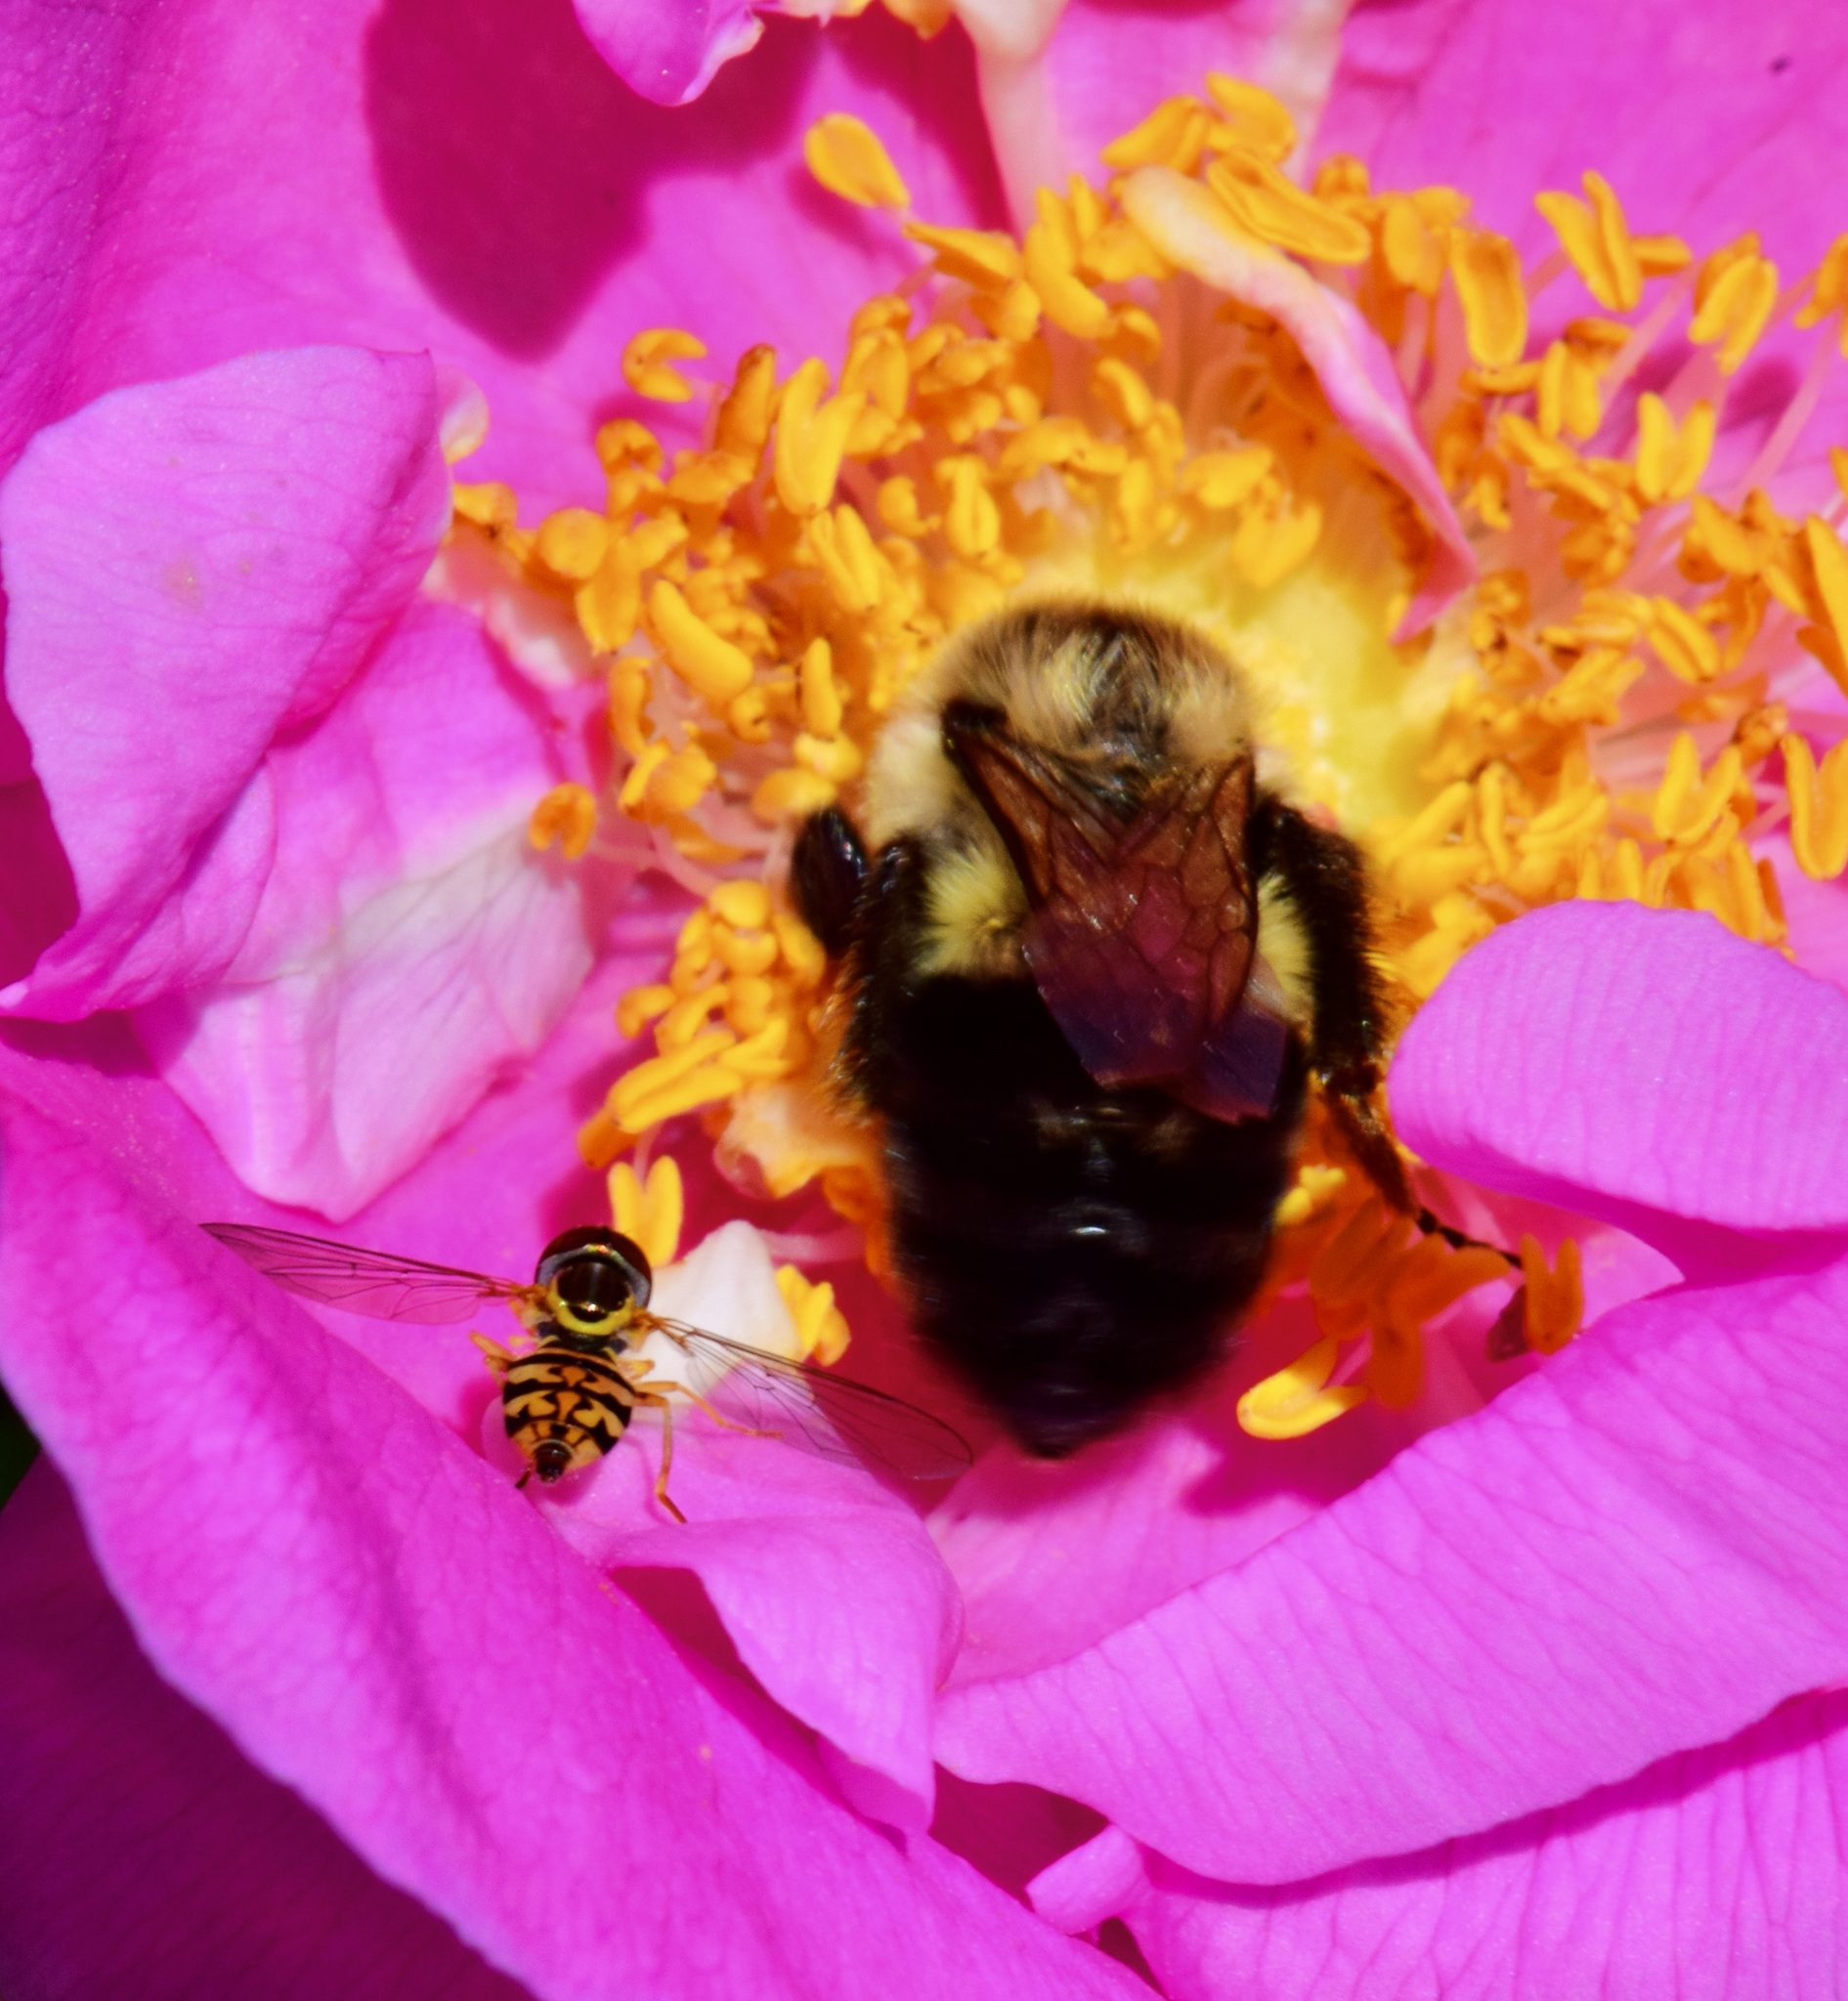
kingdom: Animalia
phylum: Arthropoda
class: Insecta
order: Hymenoptera
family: Apidae
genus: Bombus
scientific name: Bombus impatiens
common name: Common eastern bumble bee
